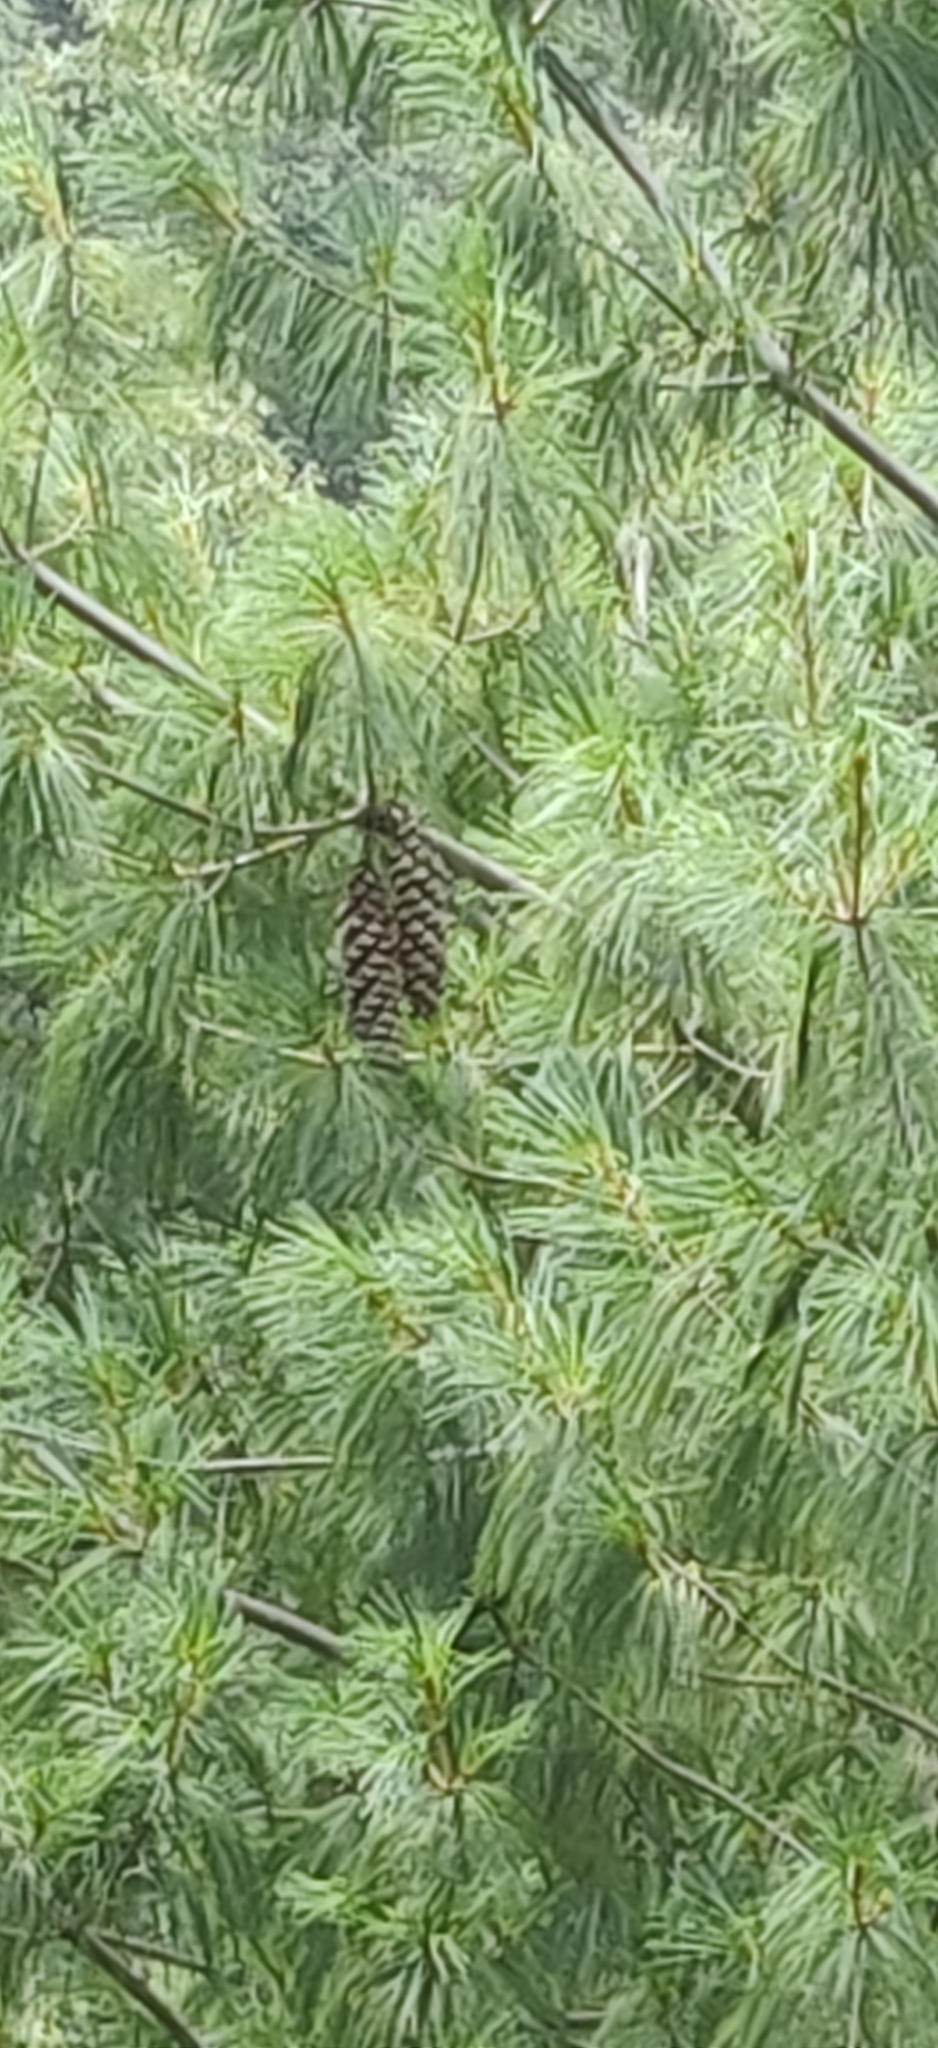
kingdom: Plantae
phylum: Tracheophyta
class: Pinopsida
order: Pinales
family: Pinaceae
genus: Pinus
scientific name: Pinus wallichiana
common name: Bhutan pine
